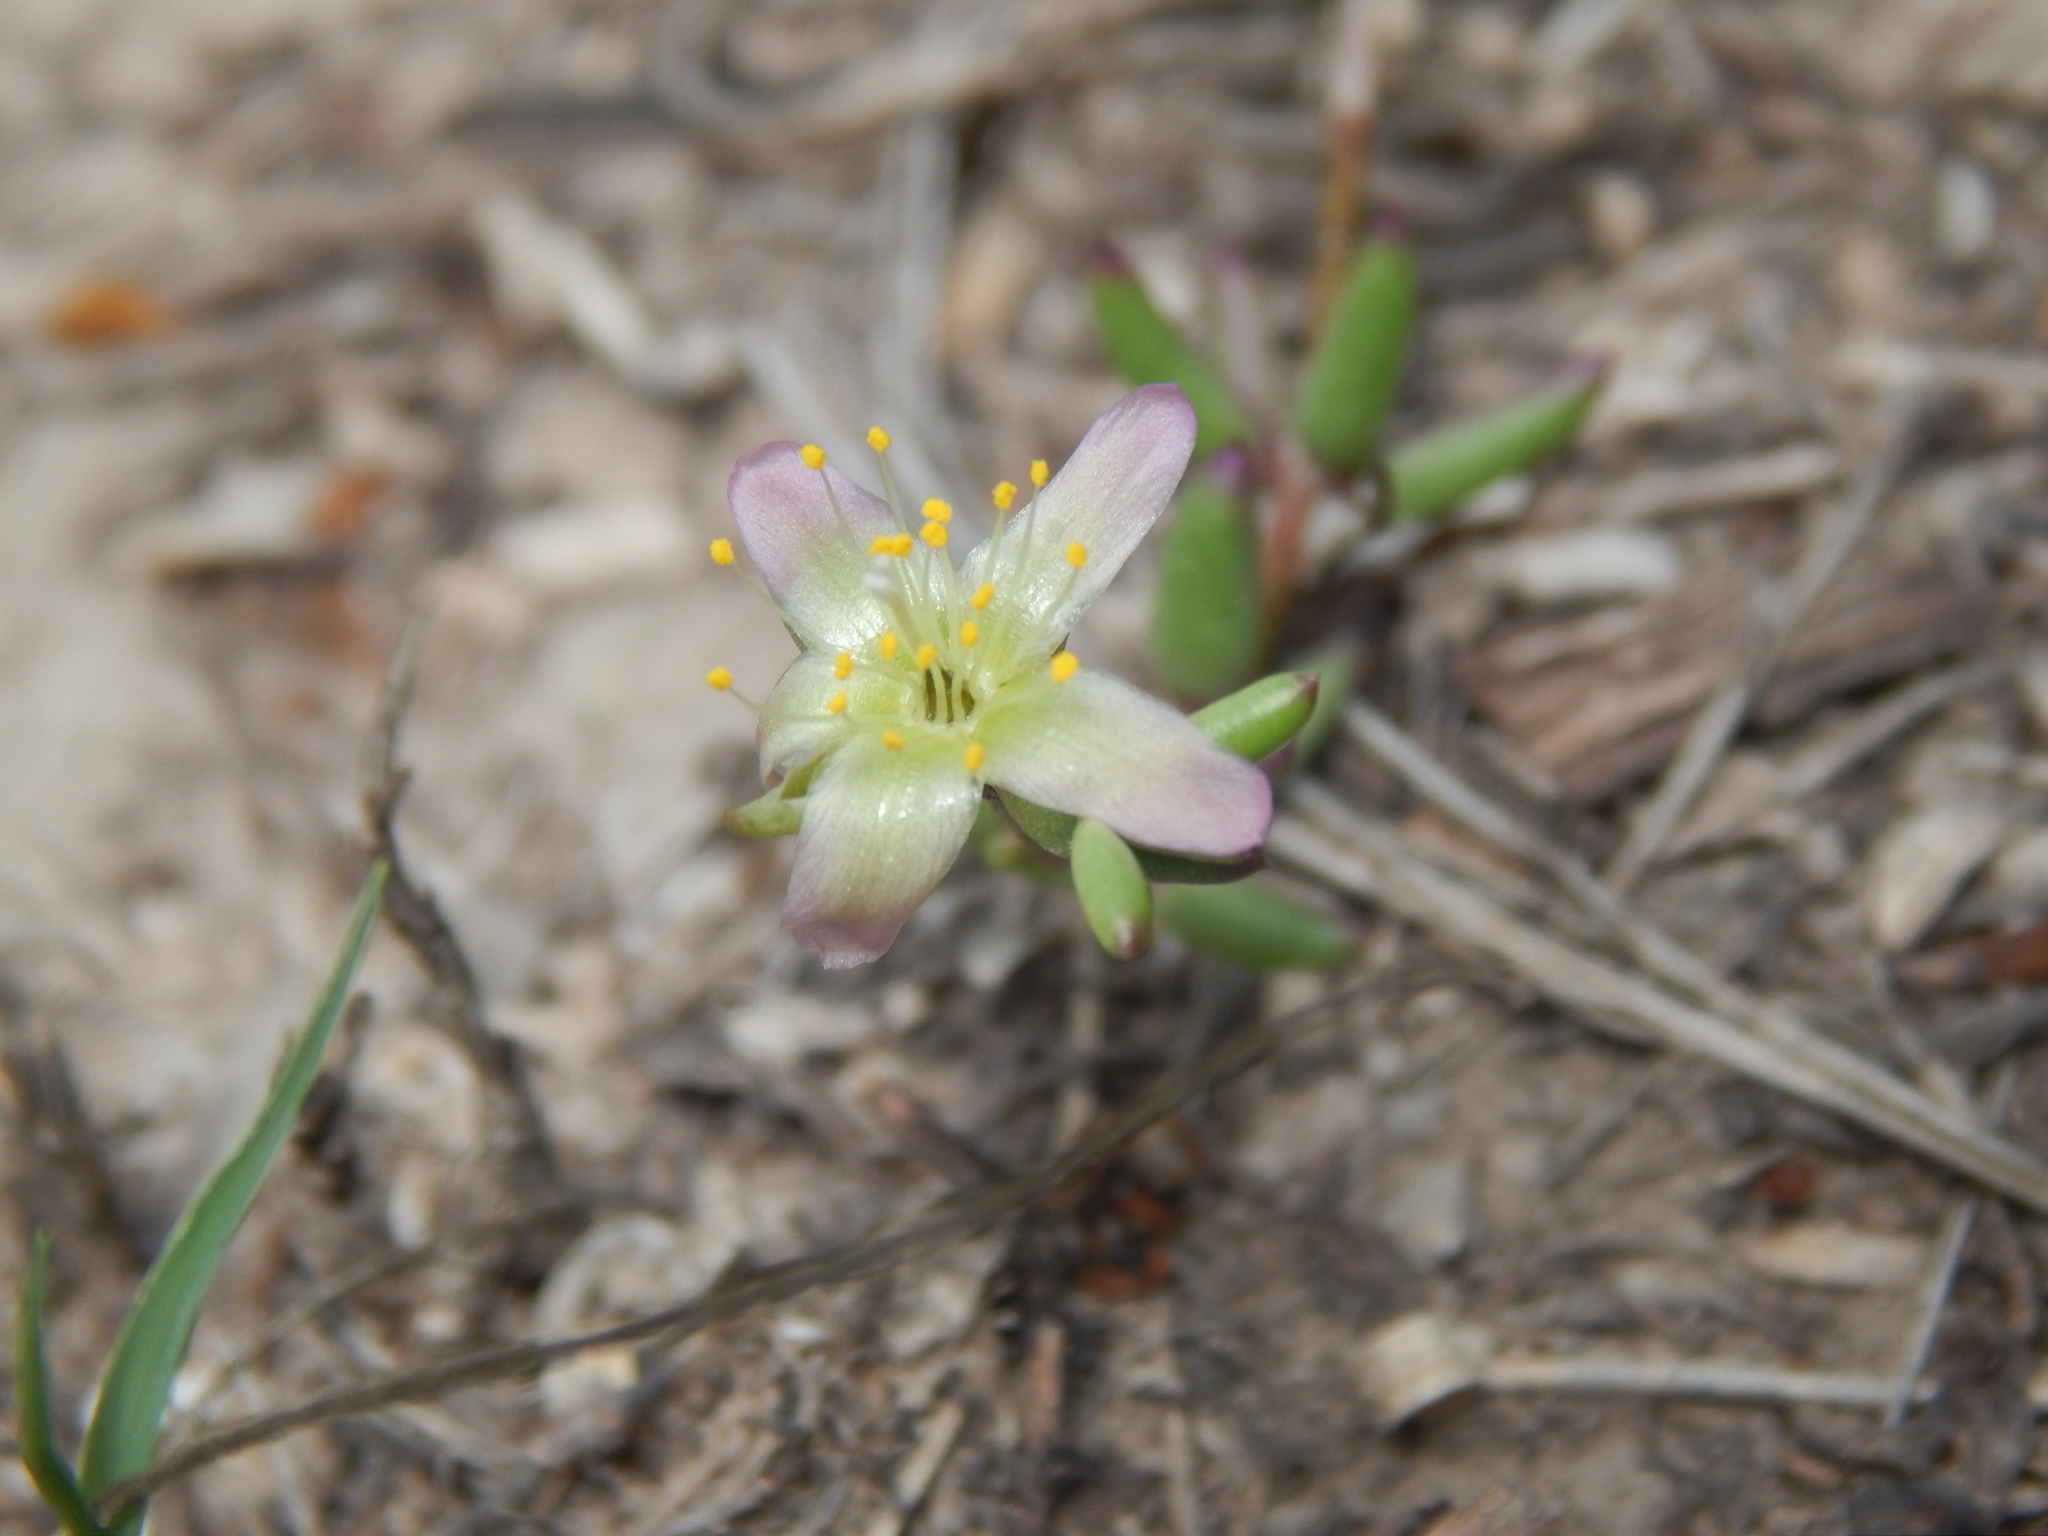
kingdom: Plantae
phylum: Tracheophyta
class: Magnoliopsida
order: Caryophyllales
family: Anacampserotaceae
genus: Grahamia
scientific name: Grahamia frutescens
